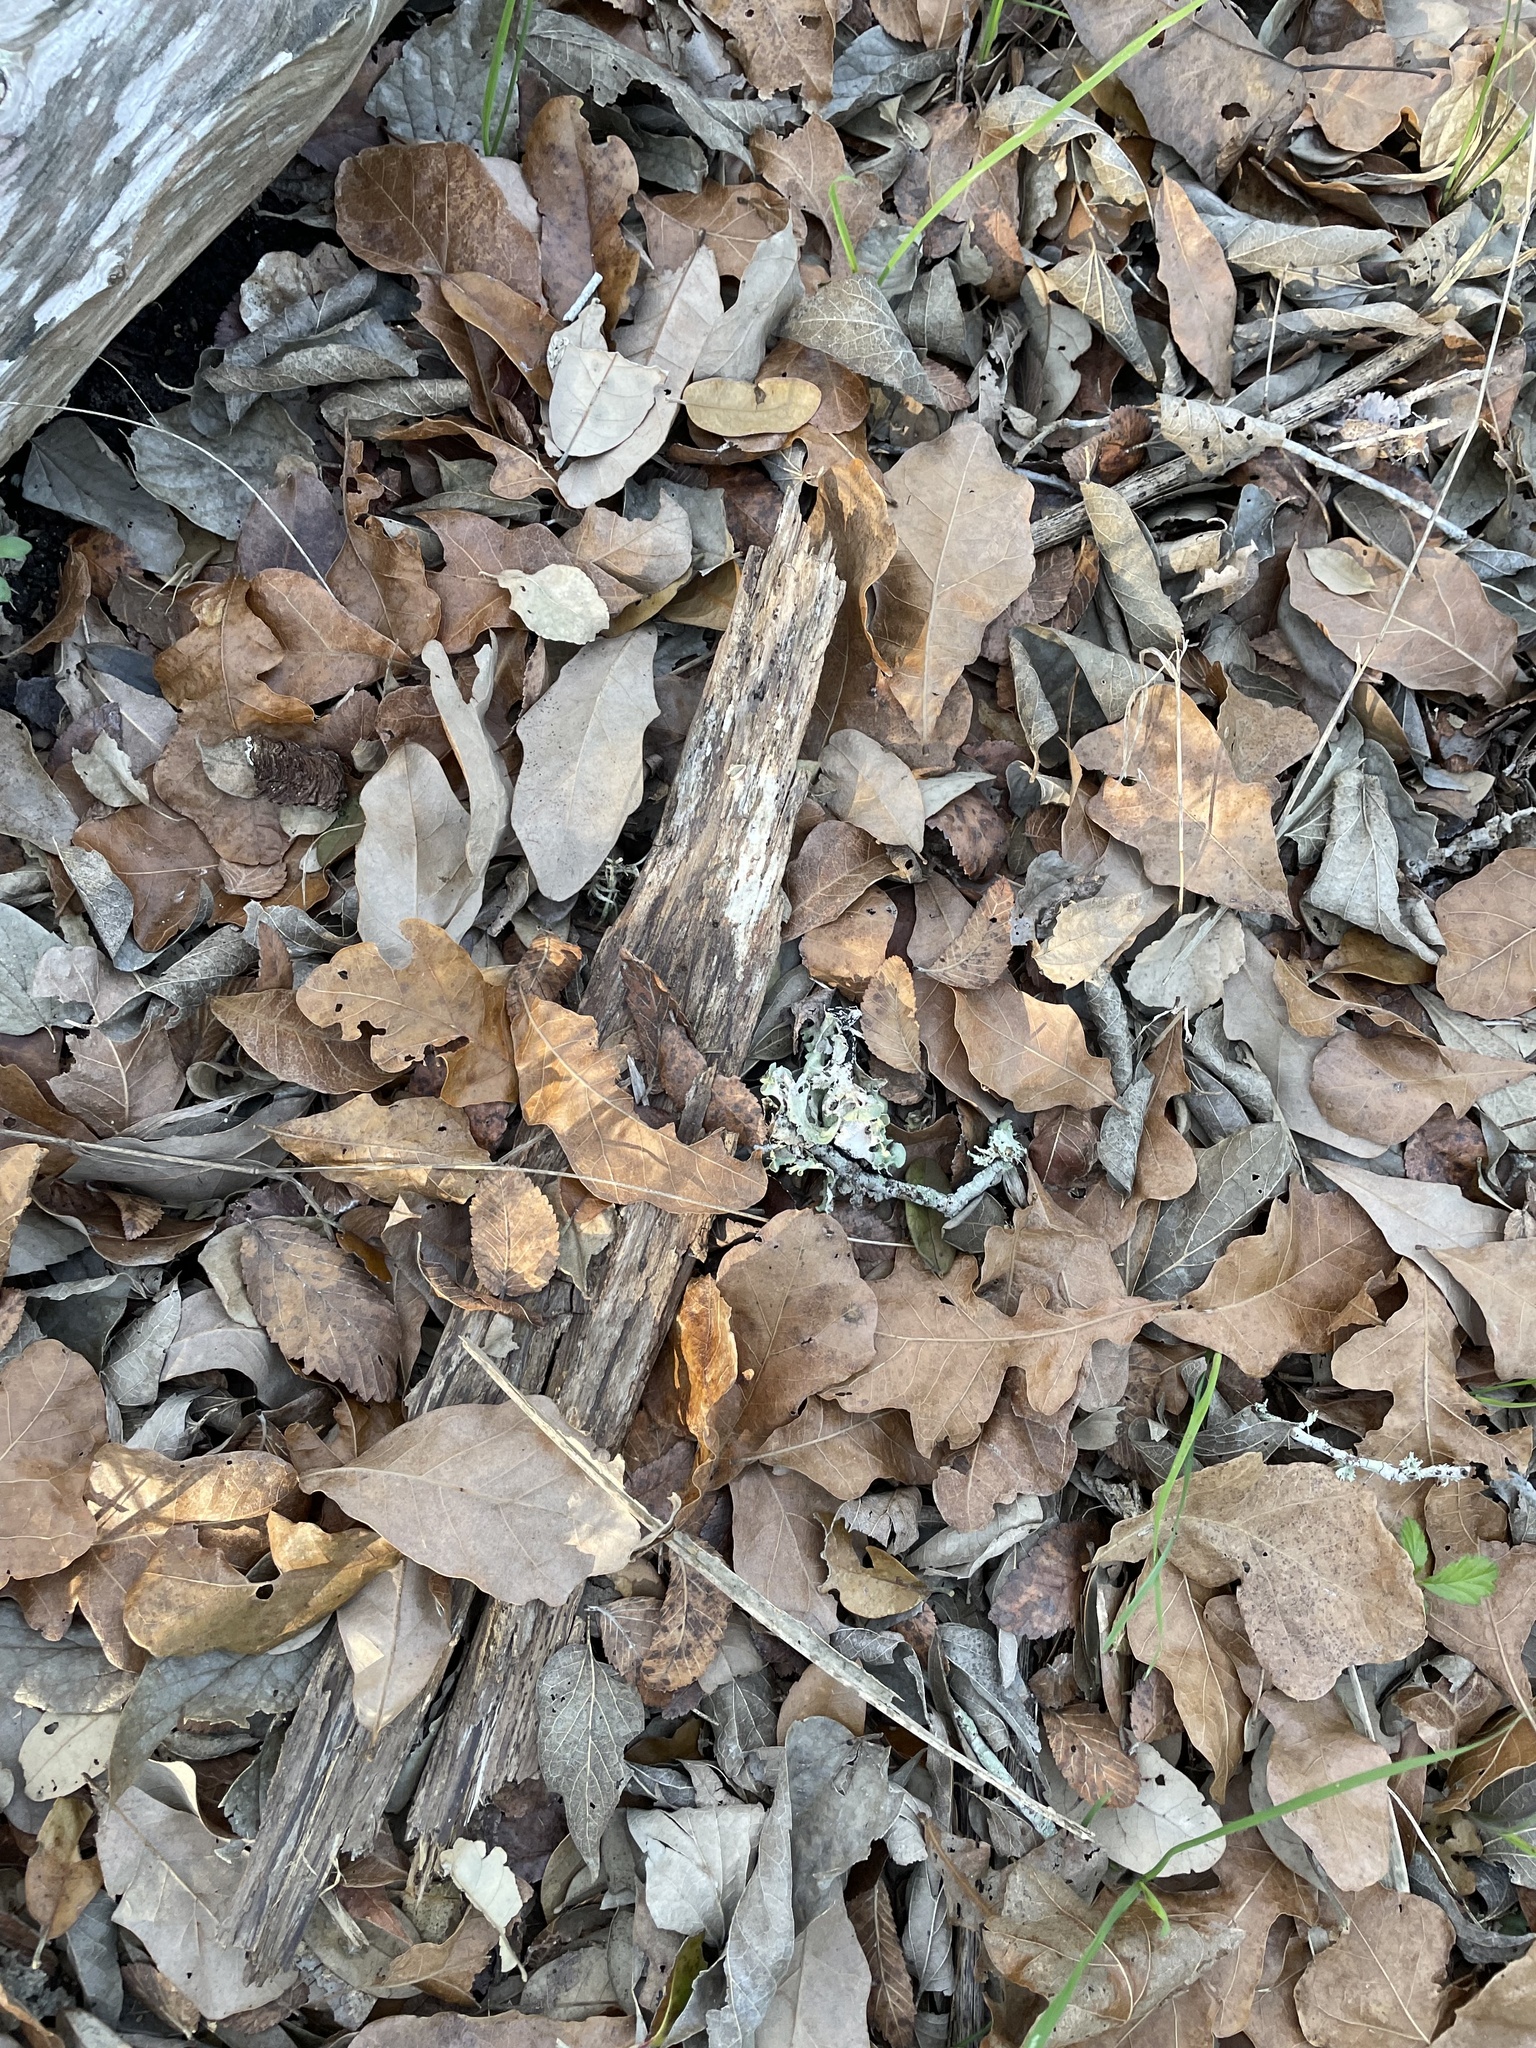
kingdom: Plantae
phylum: Tracheophyta
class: Magnoliopsida
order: Fagales
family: Fagaceae
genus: Quercus
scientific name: Quercus sinuata
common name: Durand oak
